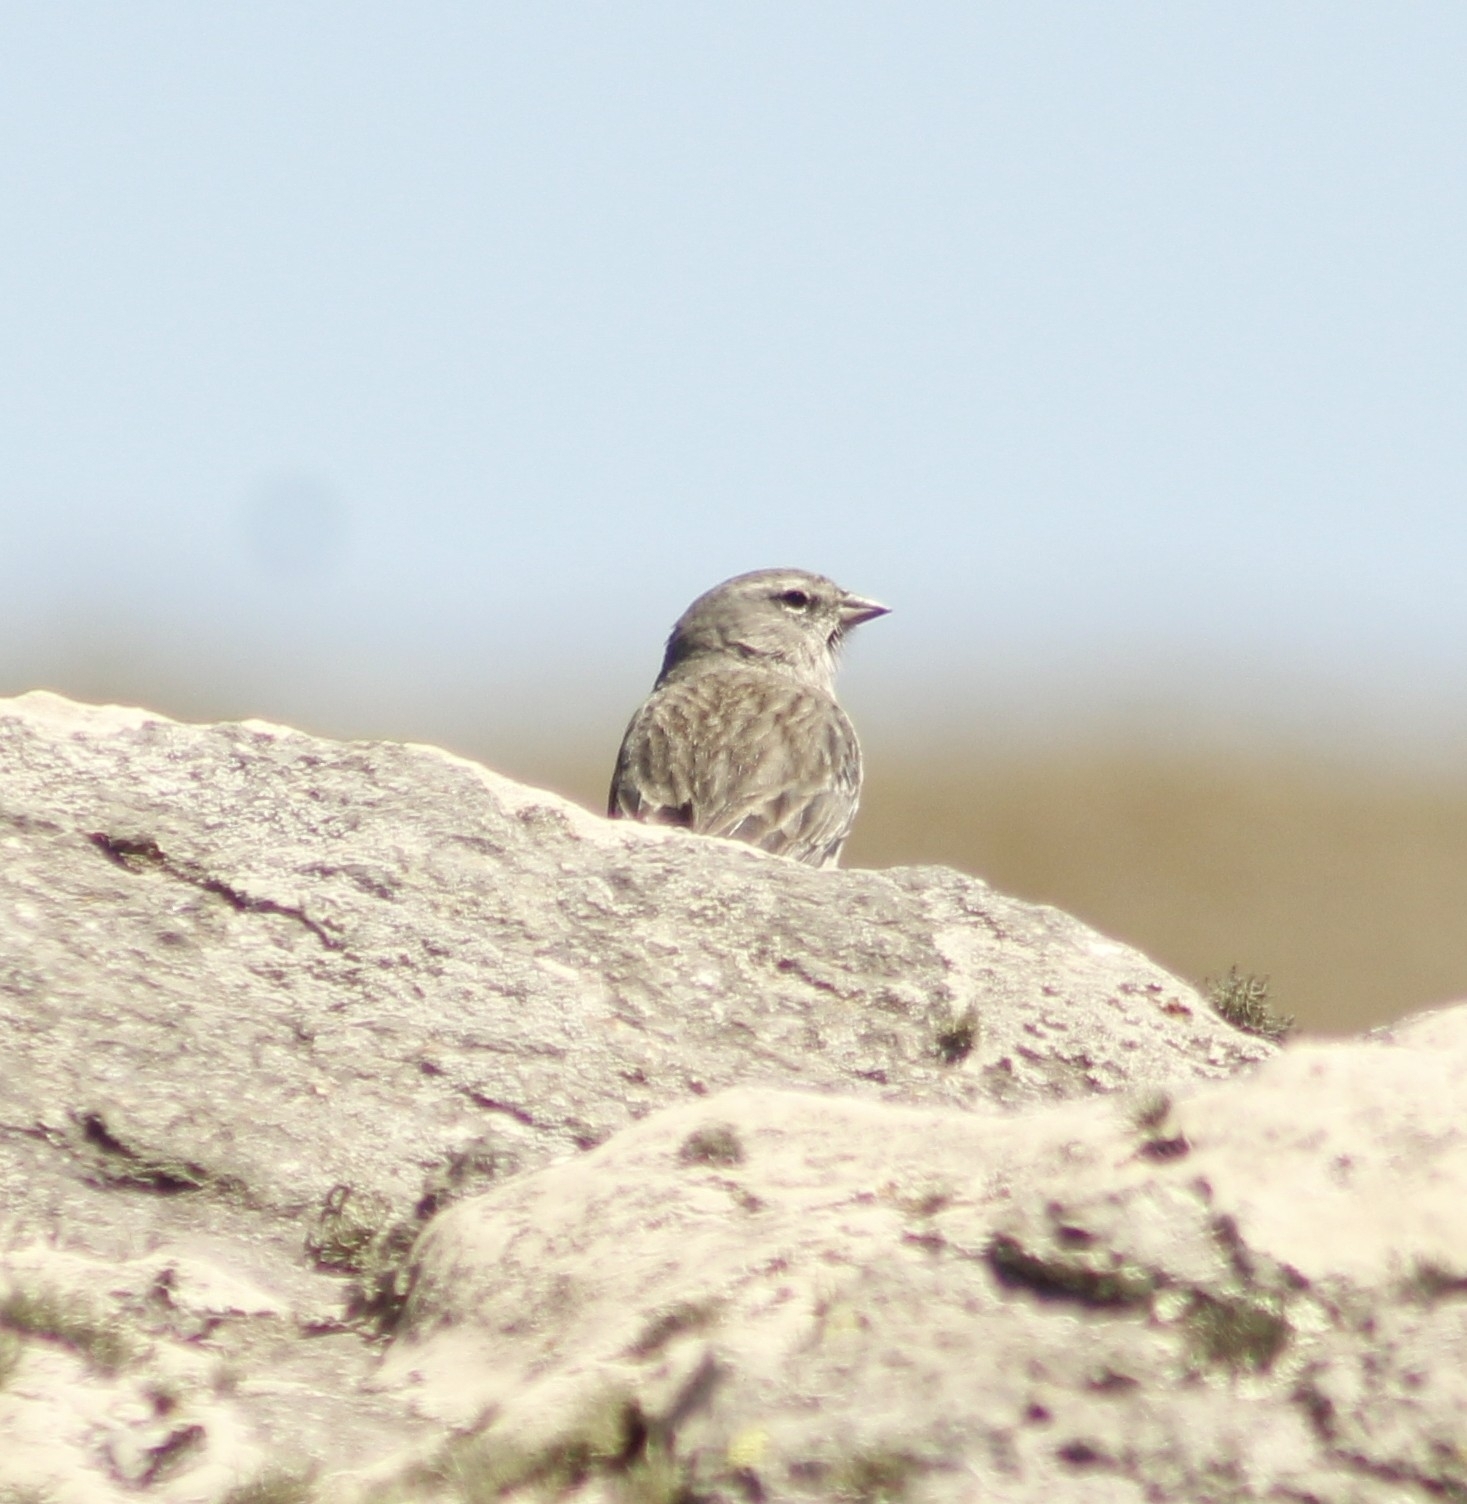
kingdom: Animalia
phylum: Chordata
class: Aves
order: Passeriformes
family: Thraupidae
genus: Geospizopsis
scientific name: Geospizopsis plebejus
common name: Ash-breasted sierra-finch
